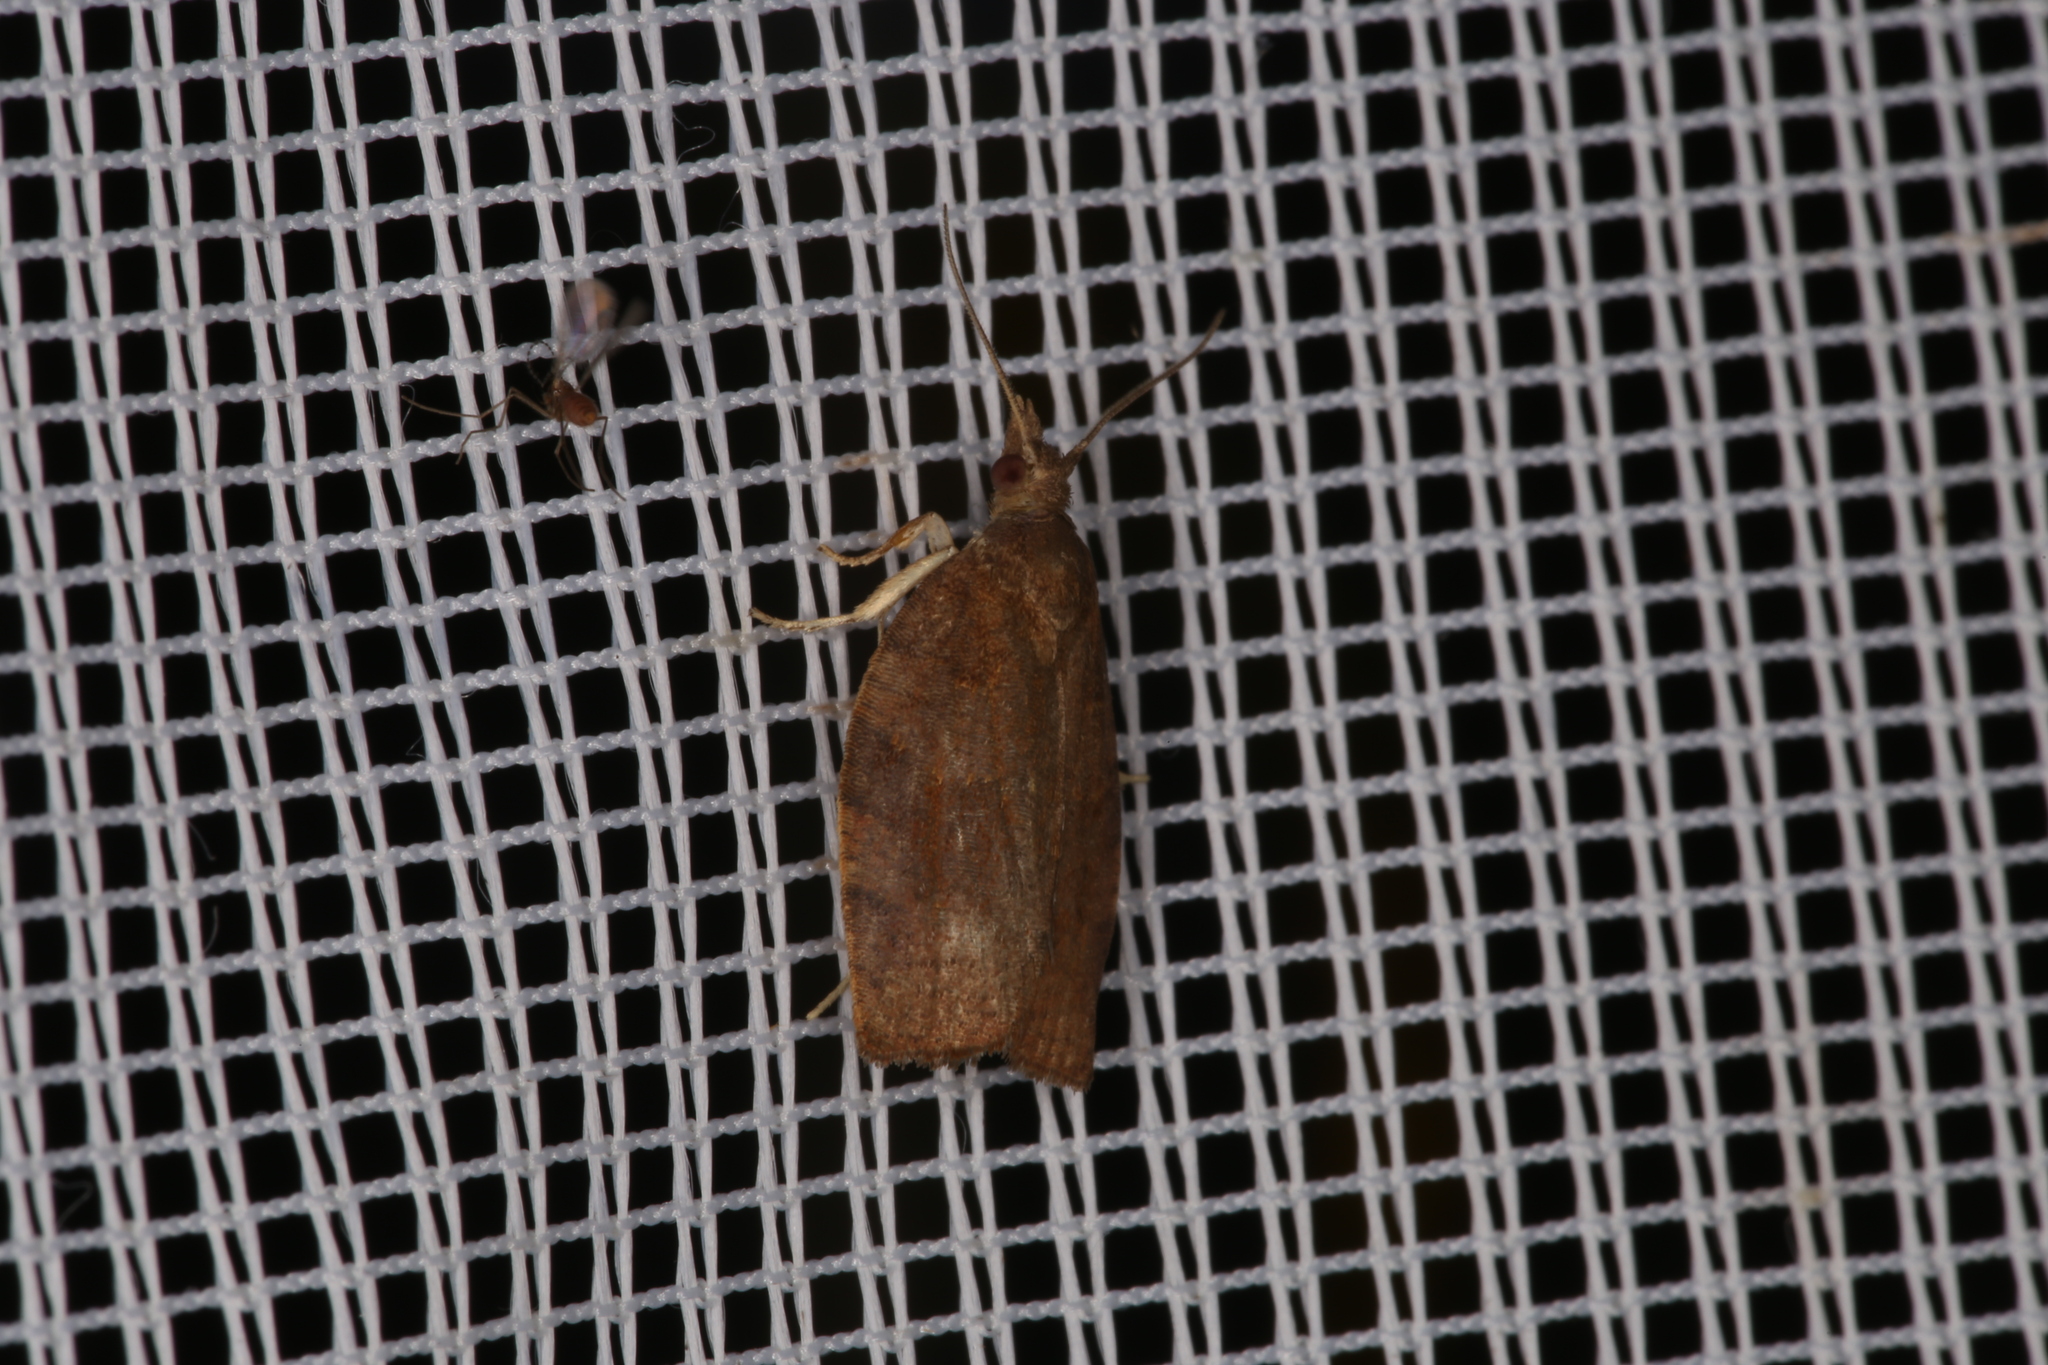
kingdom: Animalia
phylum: Arthropoda
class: Insecta
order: Lepidoptera
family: Tortricidae
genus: Pandemis
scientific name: Pandemis heparana
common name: Dark fruit-tree tortrix
